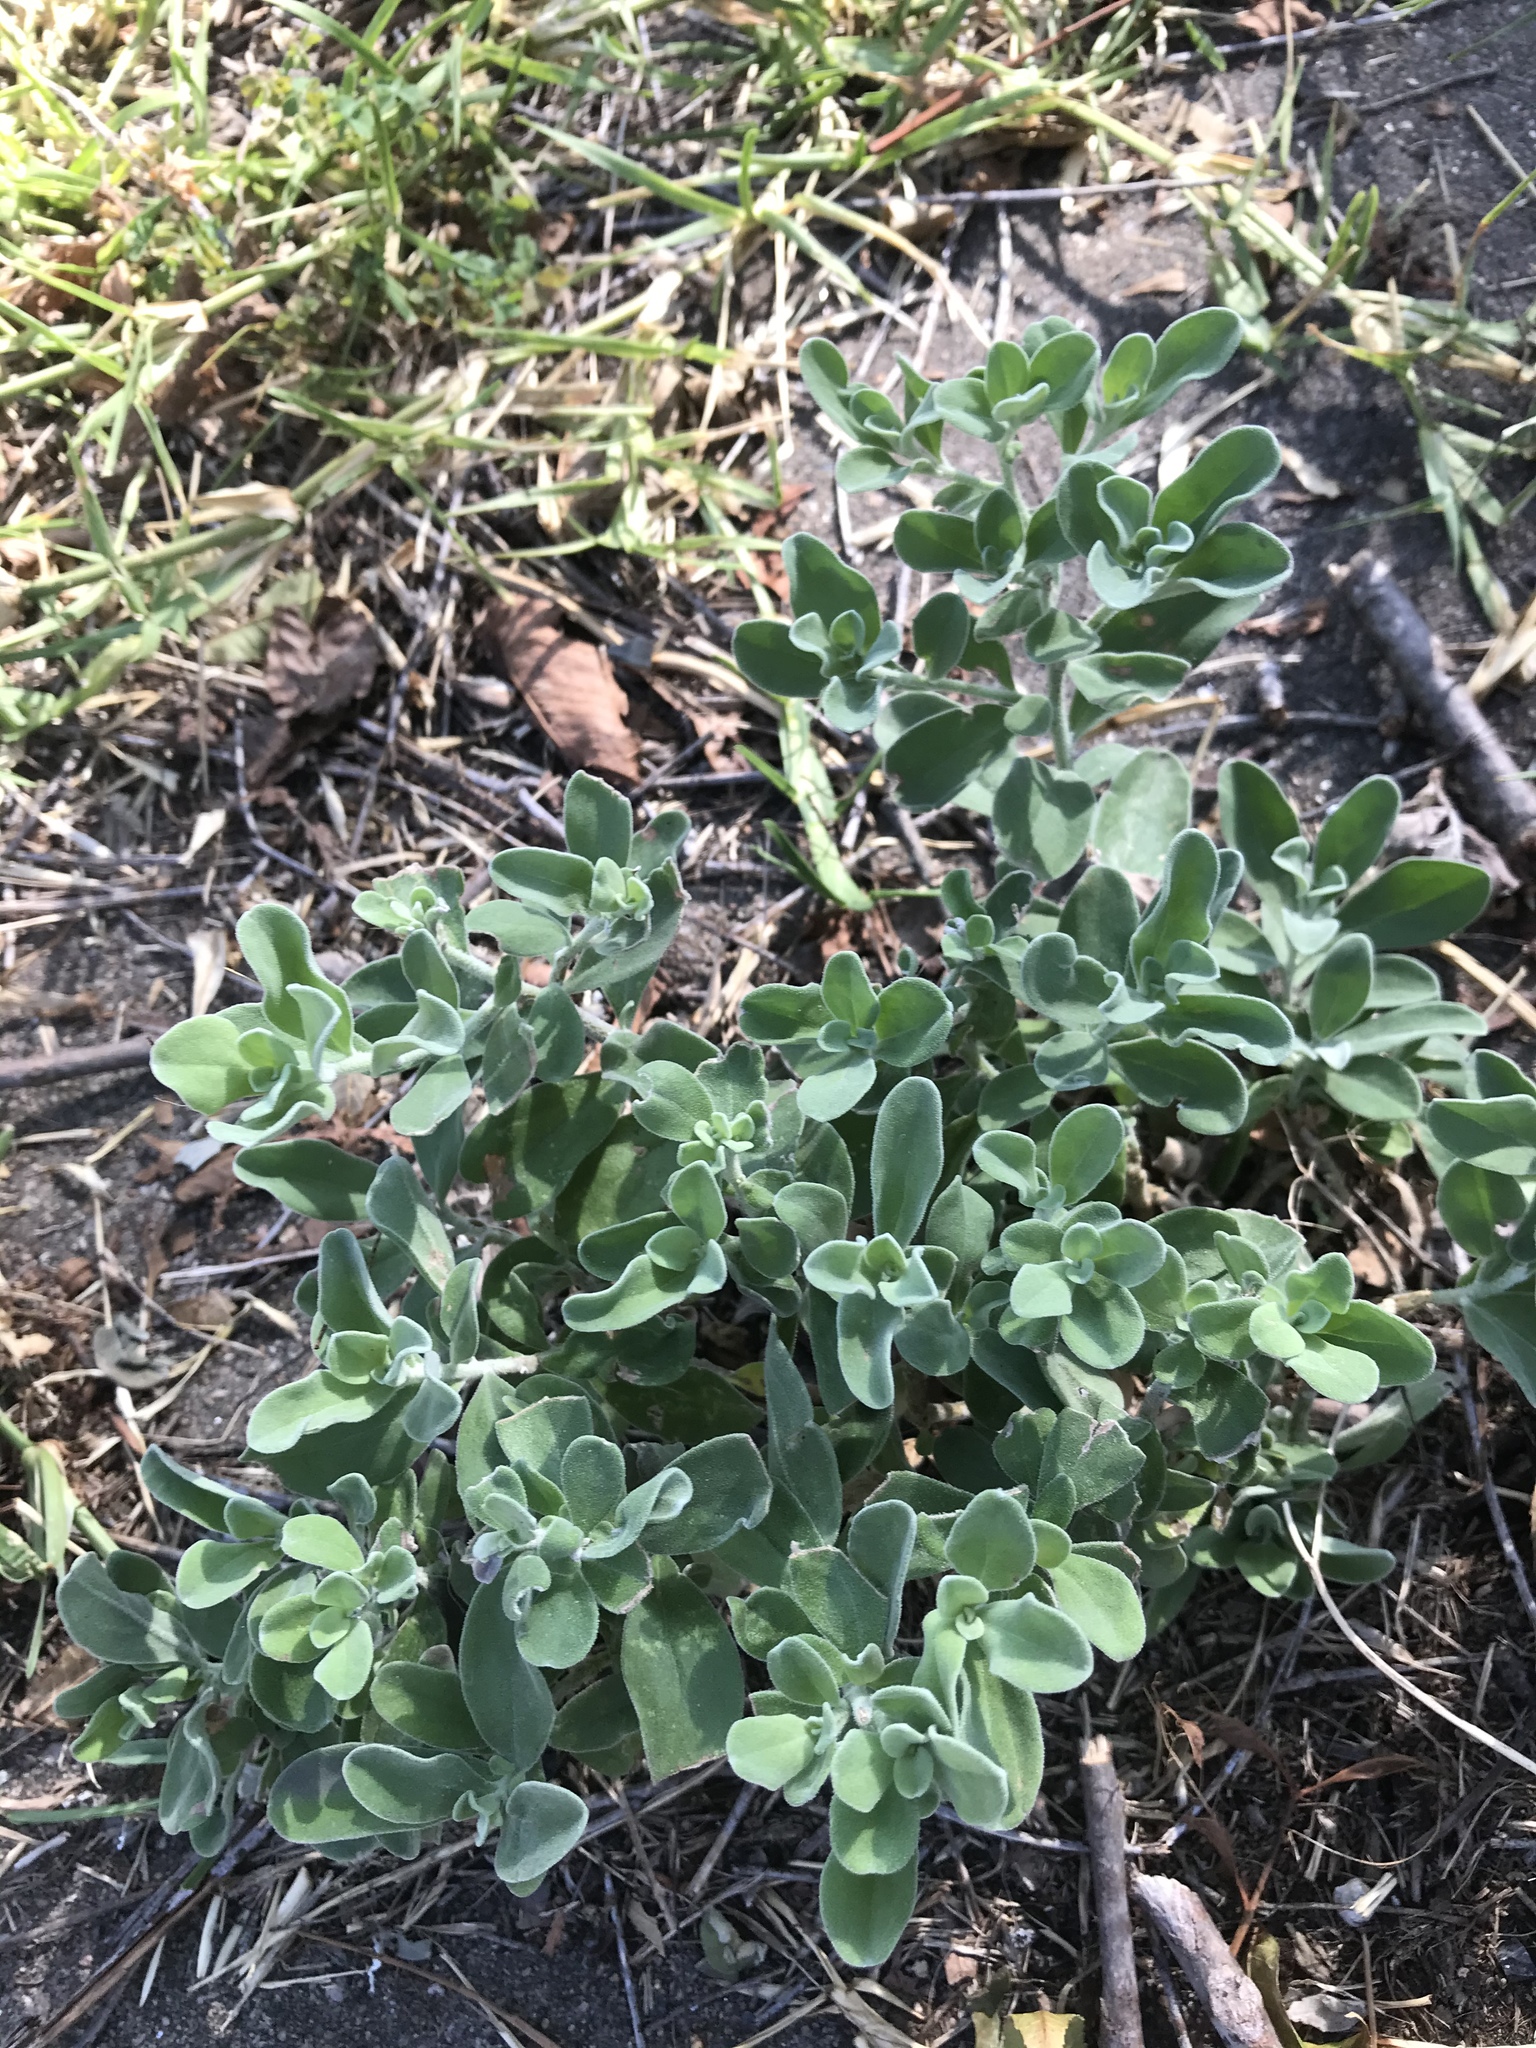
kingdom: Plantae
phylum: Tracheophyta
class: Magnoliopsida
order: Lamiales
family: Scrophulariaceae
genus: Leucophyllum
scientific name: Leucophyllum frutescens
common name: Texas silverleaf
